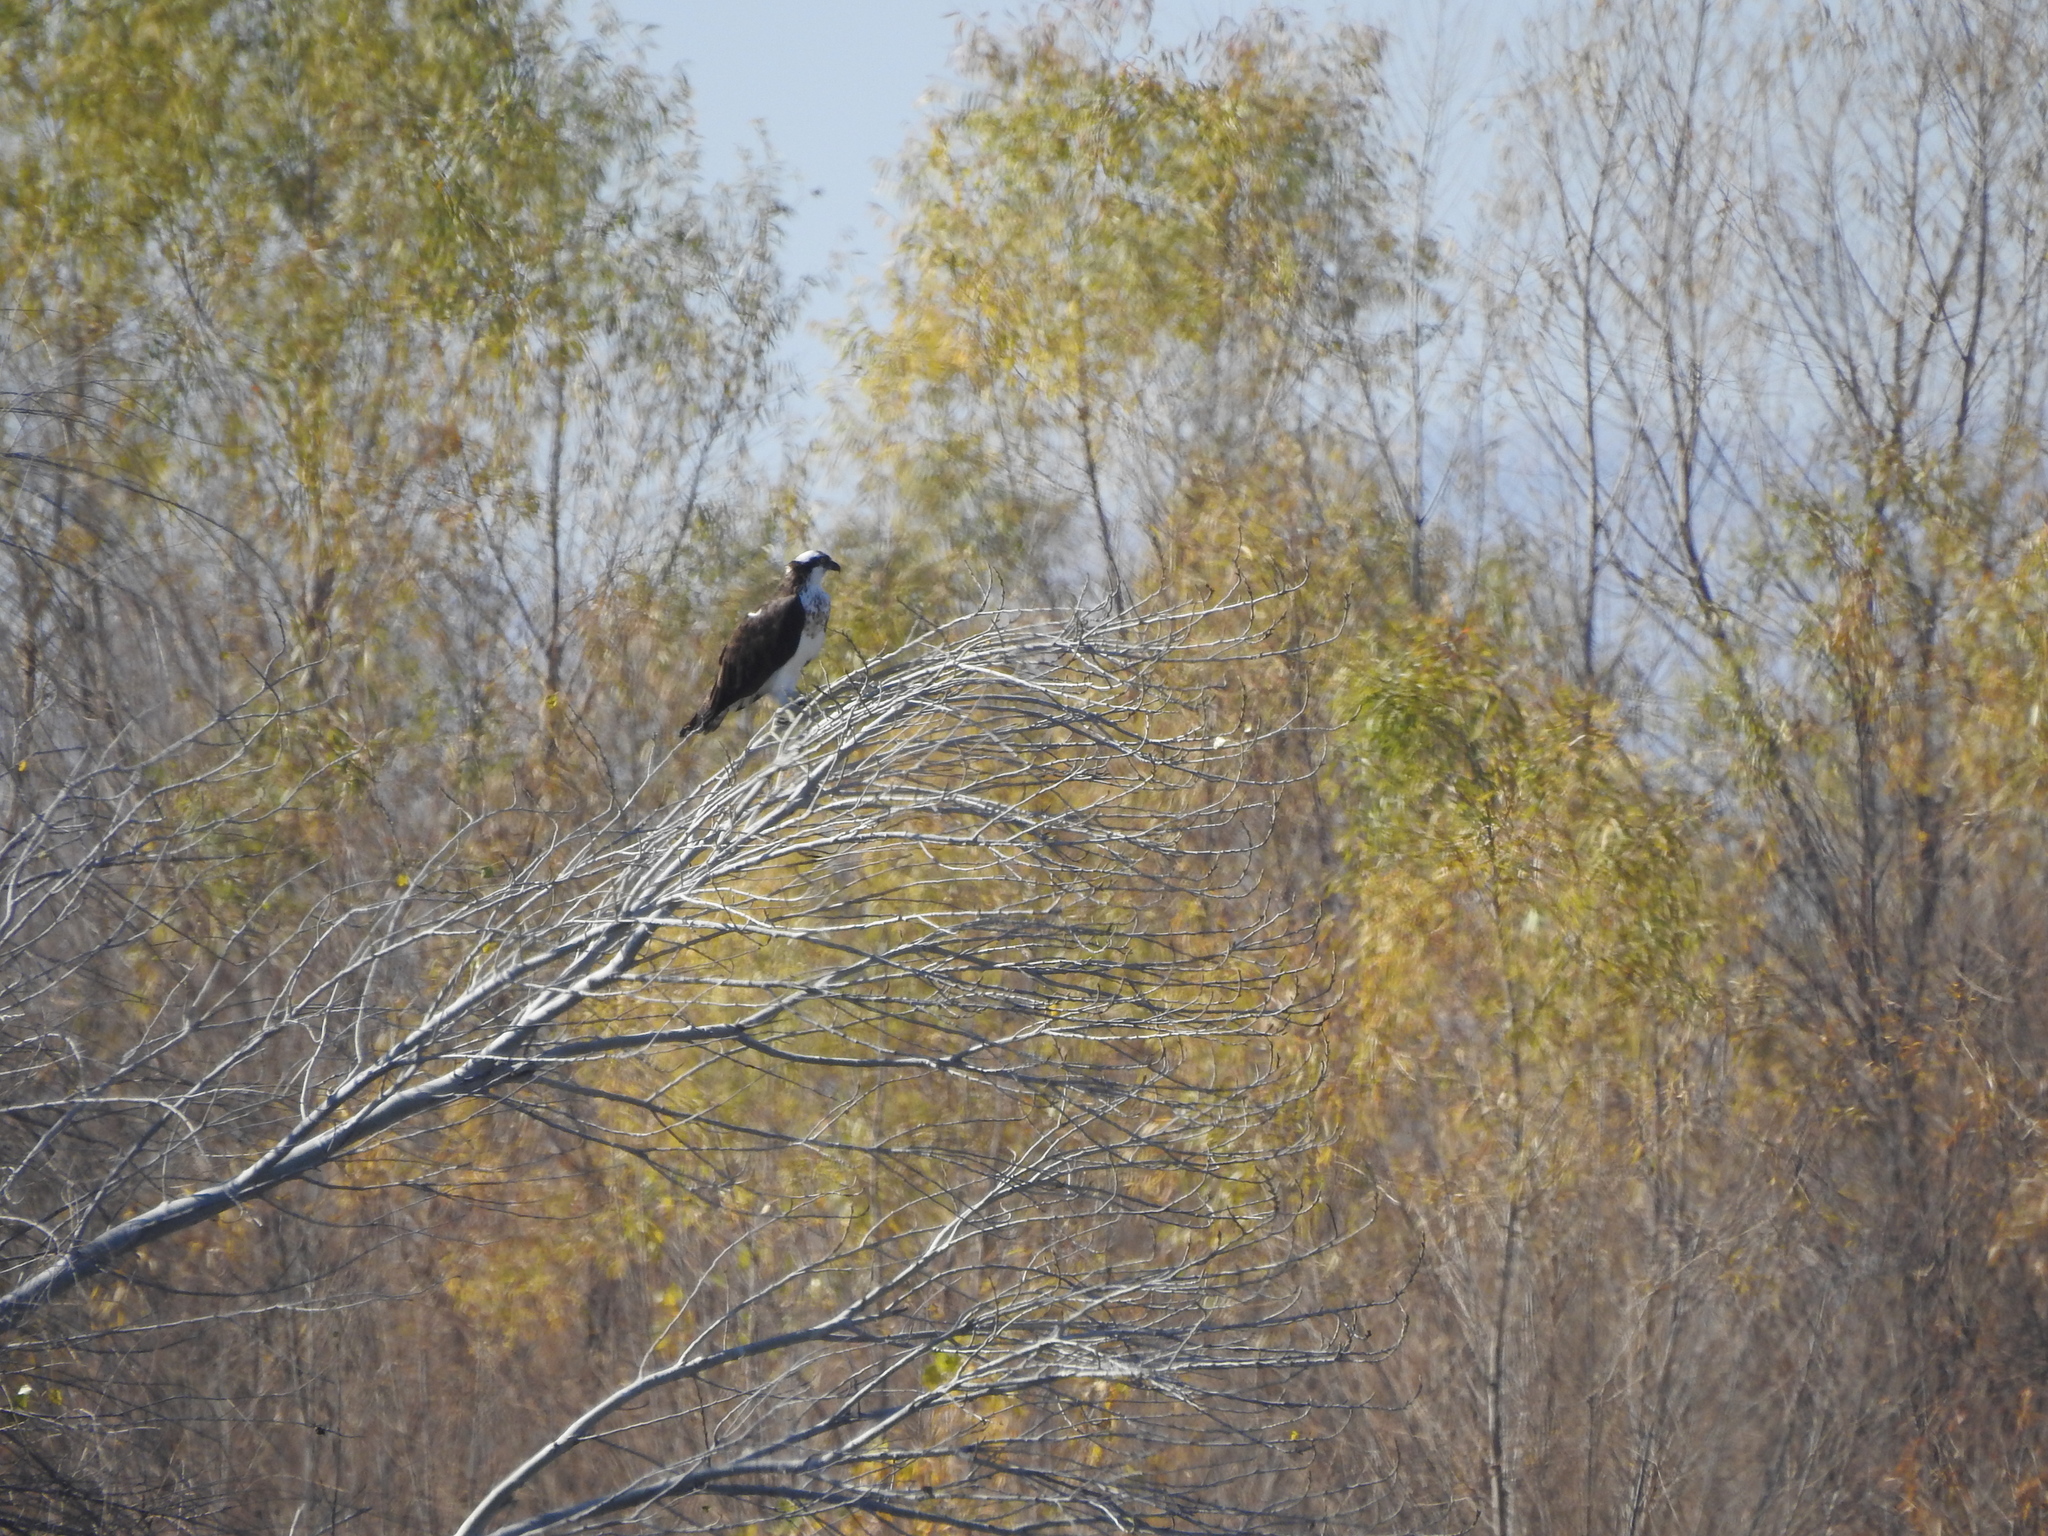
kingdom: Animalia
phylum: Chordata
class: Aves
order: Accipitriformes
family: Pandionidae
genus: Pandion
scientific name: Pandion haliaetus
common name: Osprey
